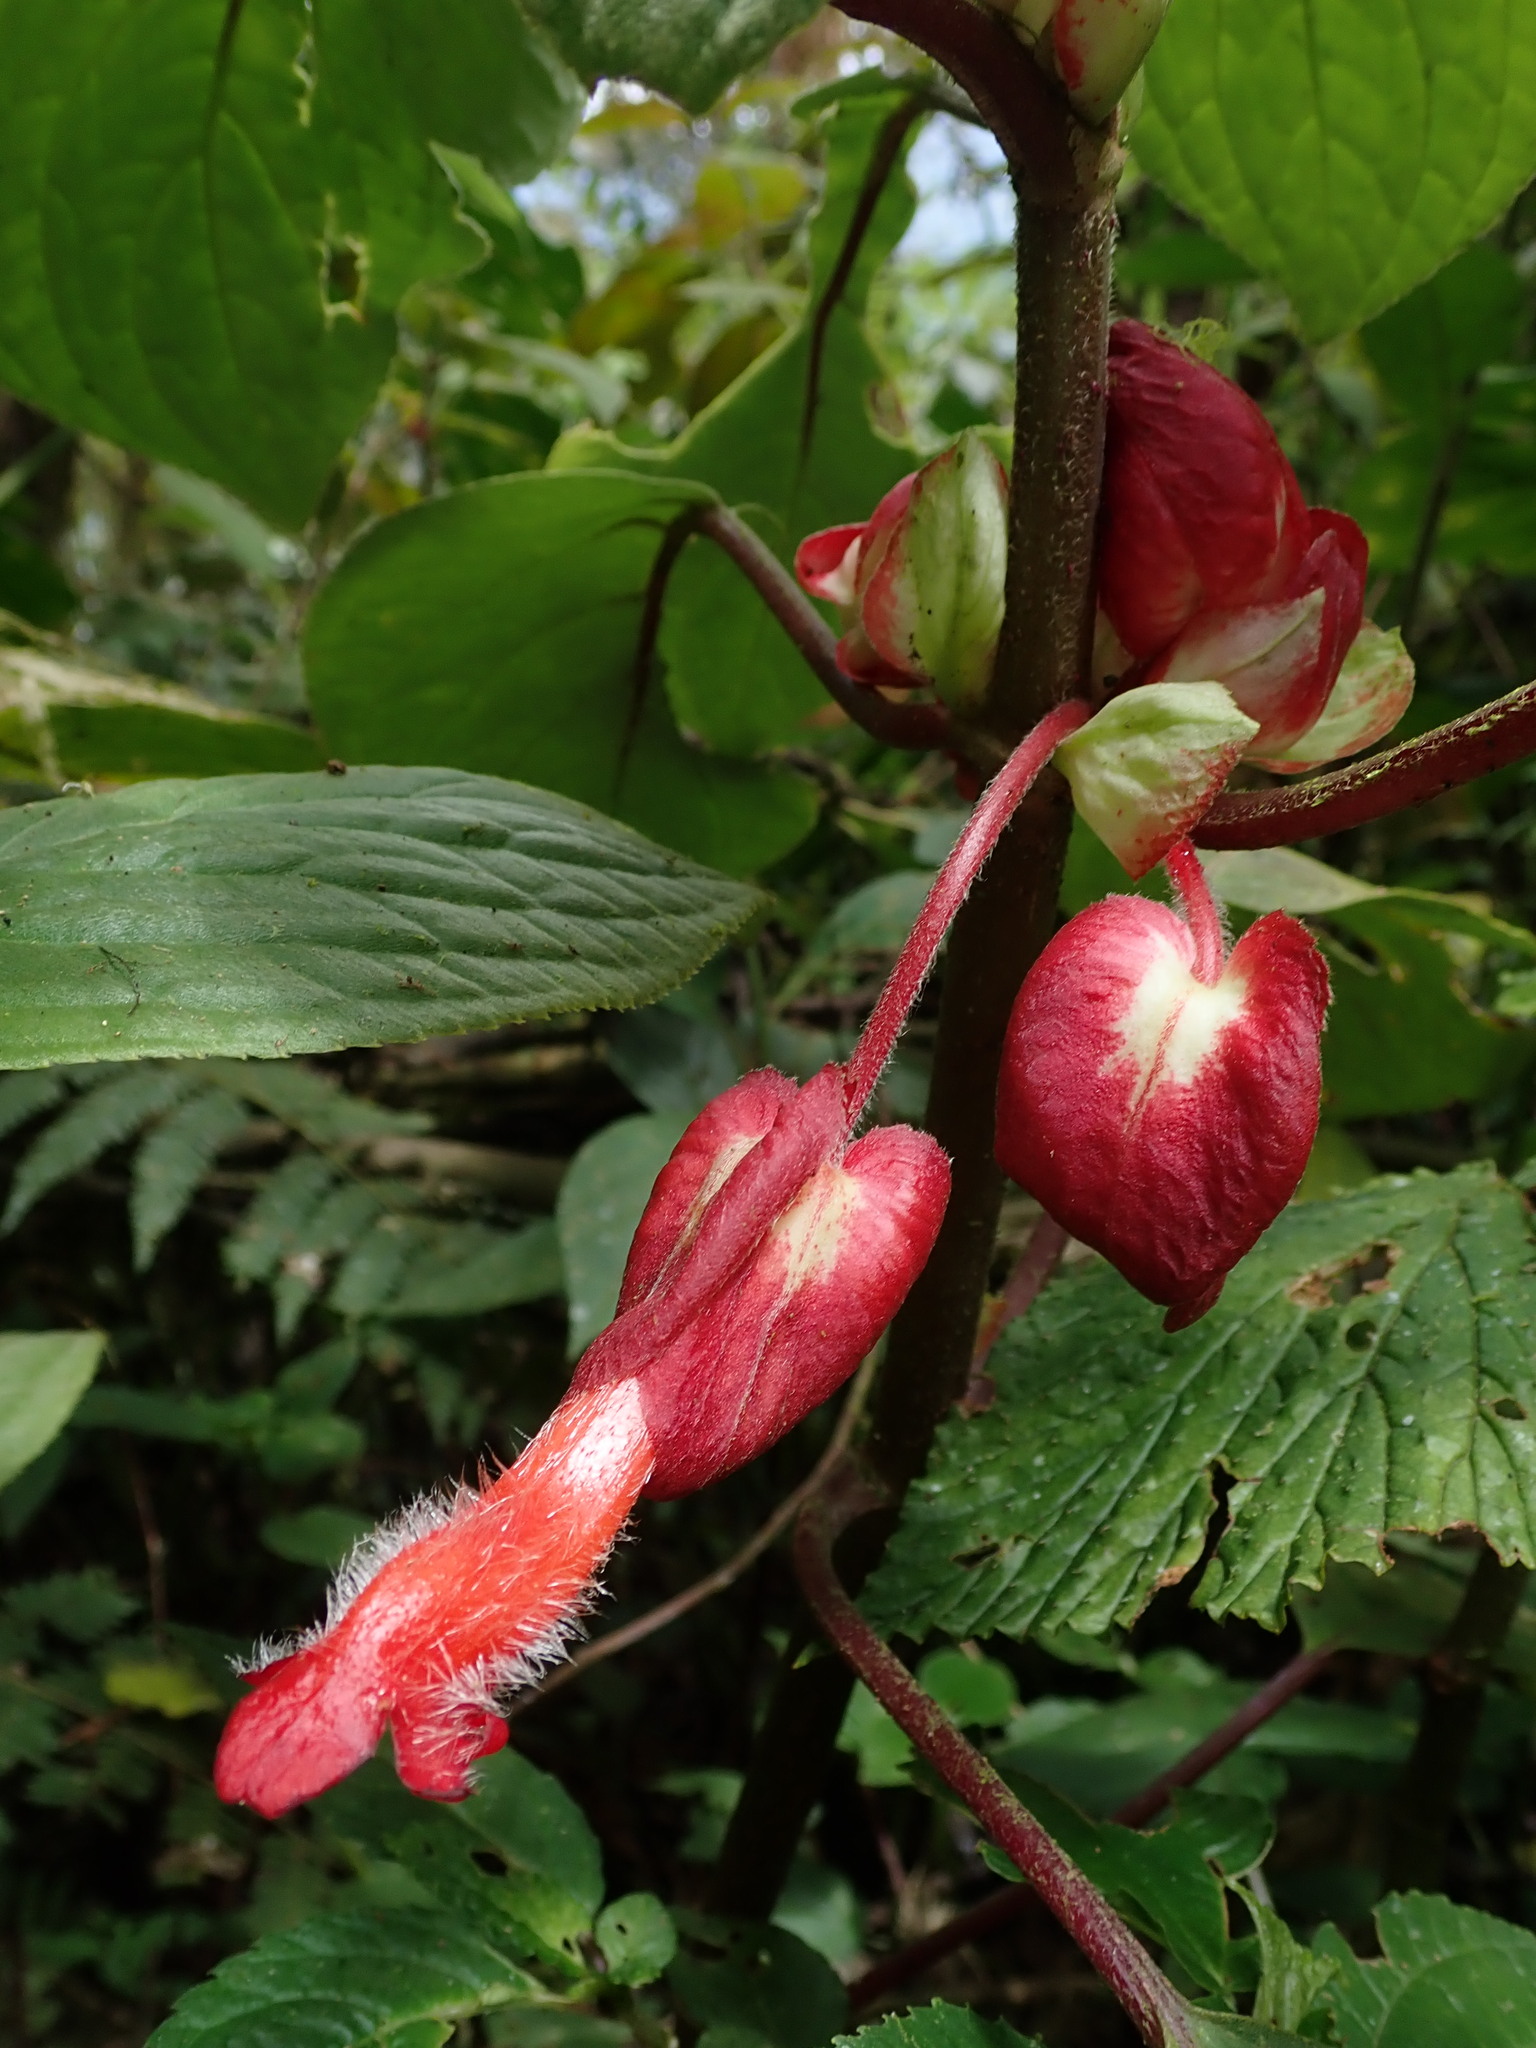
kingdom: Plantae
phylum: Tracheophyta
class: Magnoliopsida
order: Lamiales
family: Gesneriaceae
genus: Glossoloma
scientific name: Glossoloma oblongicalyx
